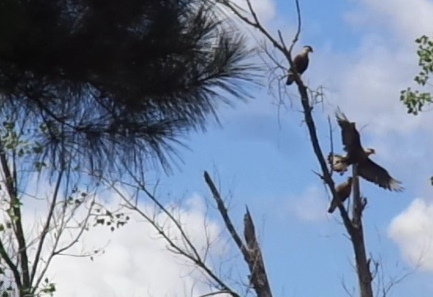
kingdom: Animalia
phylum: Chordata
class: Aves
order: Falconiformes
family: Falconidae
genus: Caracara
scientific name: Caracara plancus
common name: Southern caracara
